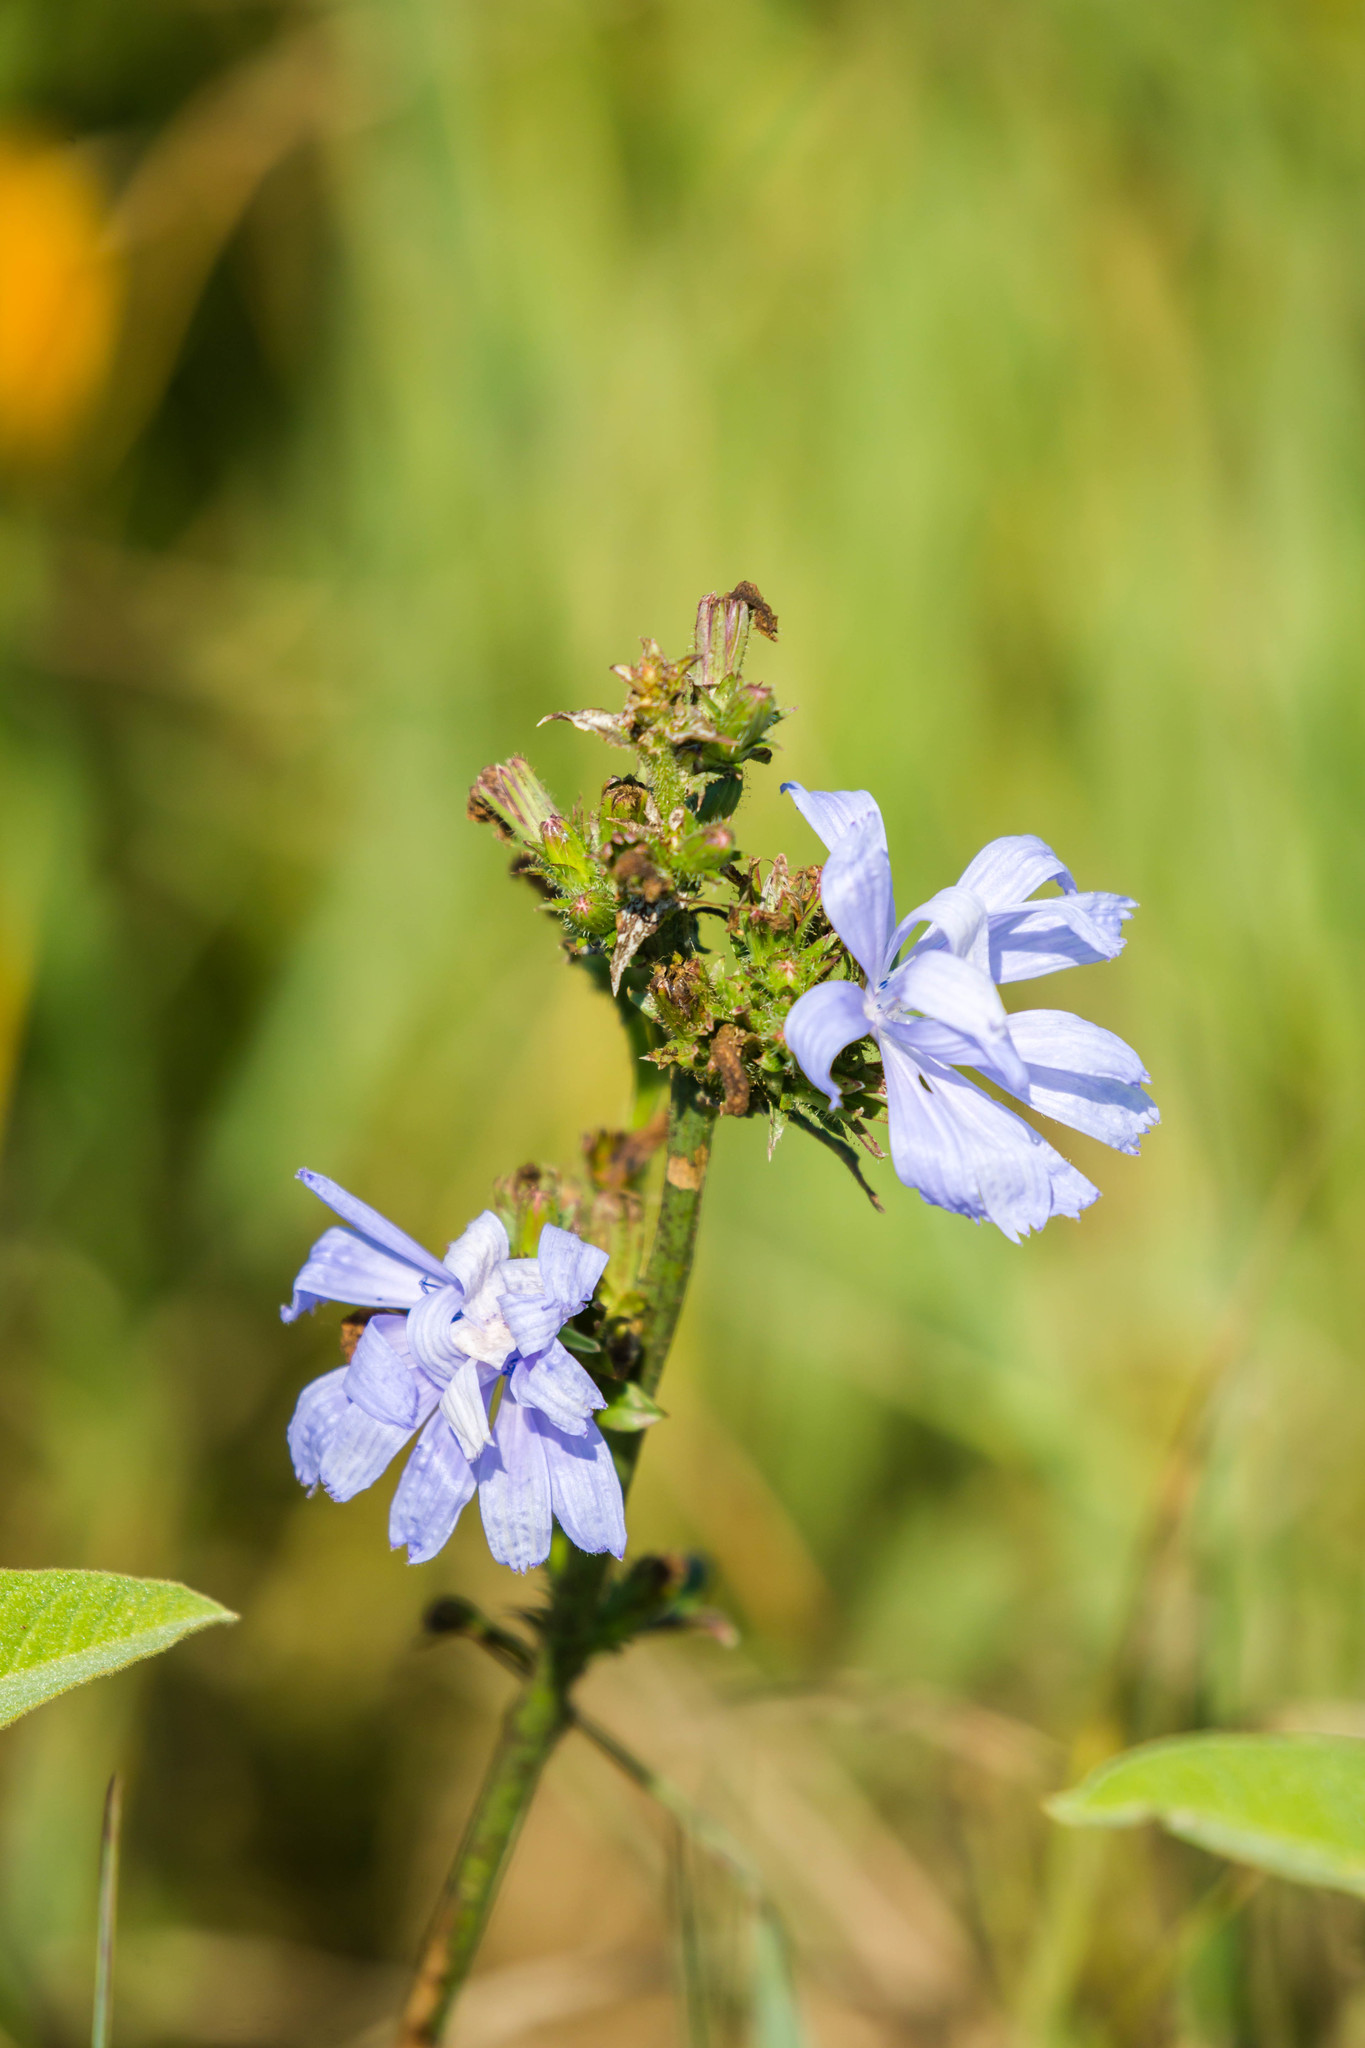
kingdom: Plantae
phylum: Tracheophyta
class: Magnoliopsida
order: Asterales
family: Asteraceae
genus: Cichorium
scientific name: Cichorium intybus
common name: Chicory
